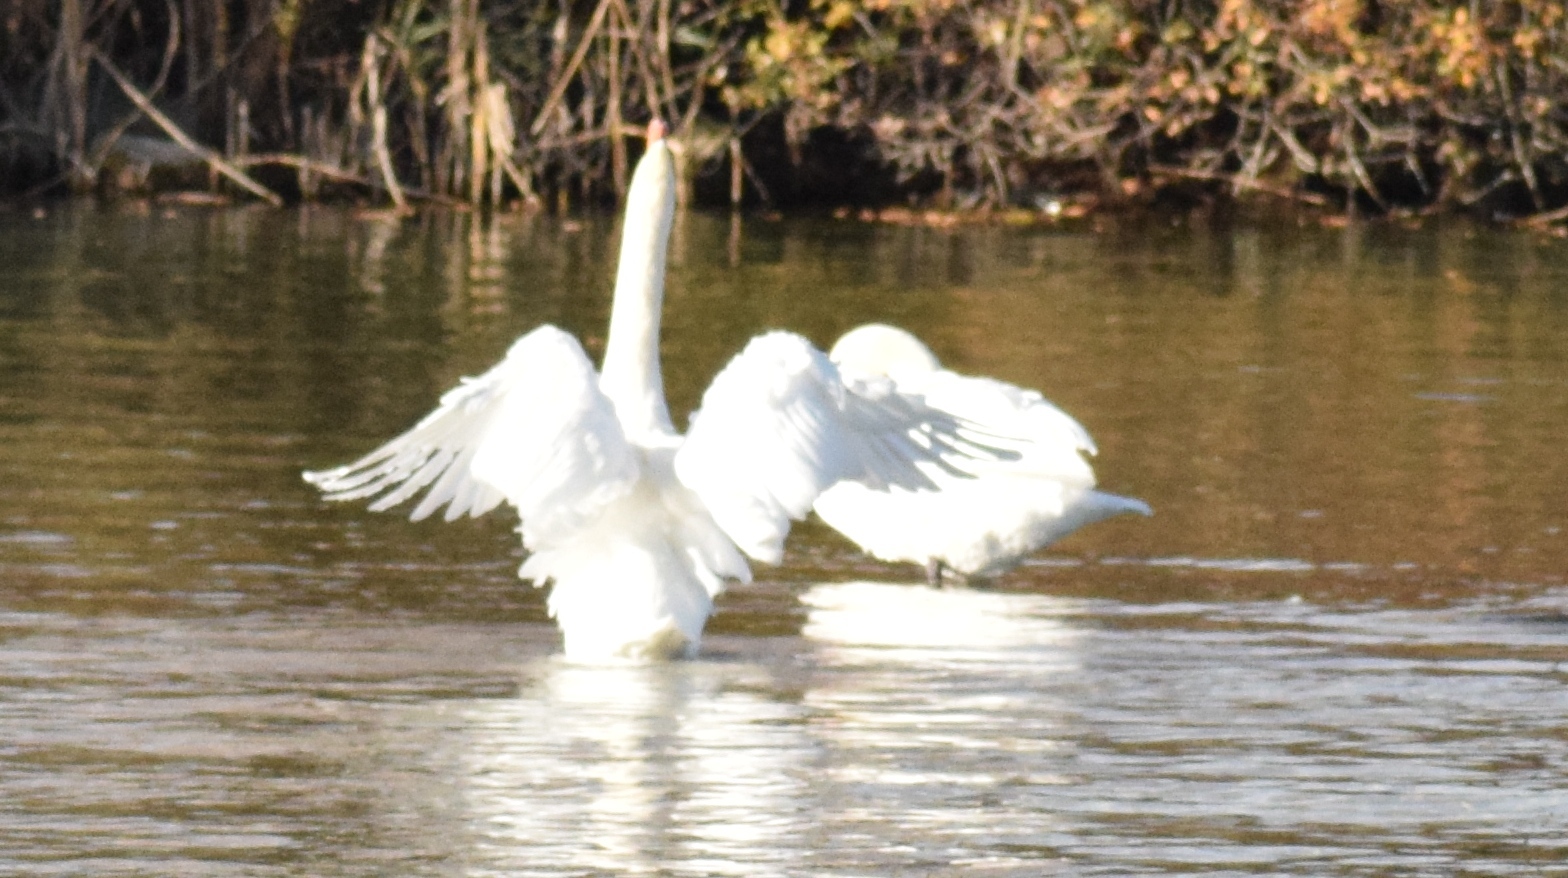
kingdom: Animalia
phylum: Chordata
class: Aves
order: Anseriformes
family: Anatidae
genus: Cygnus
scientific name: Cygnus olor
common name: Mute swan
